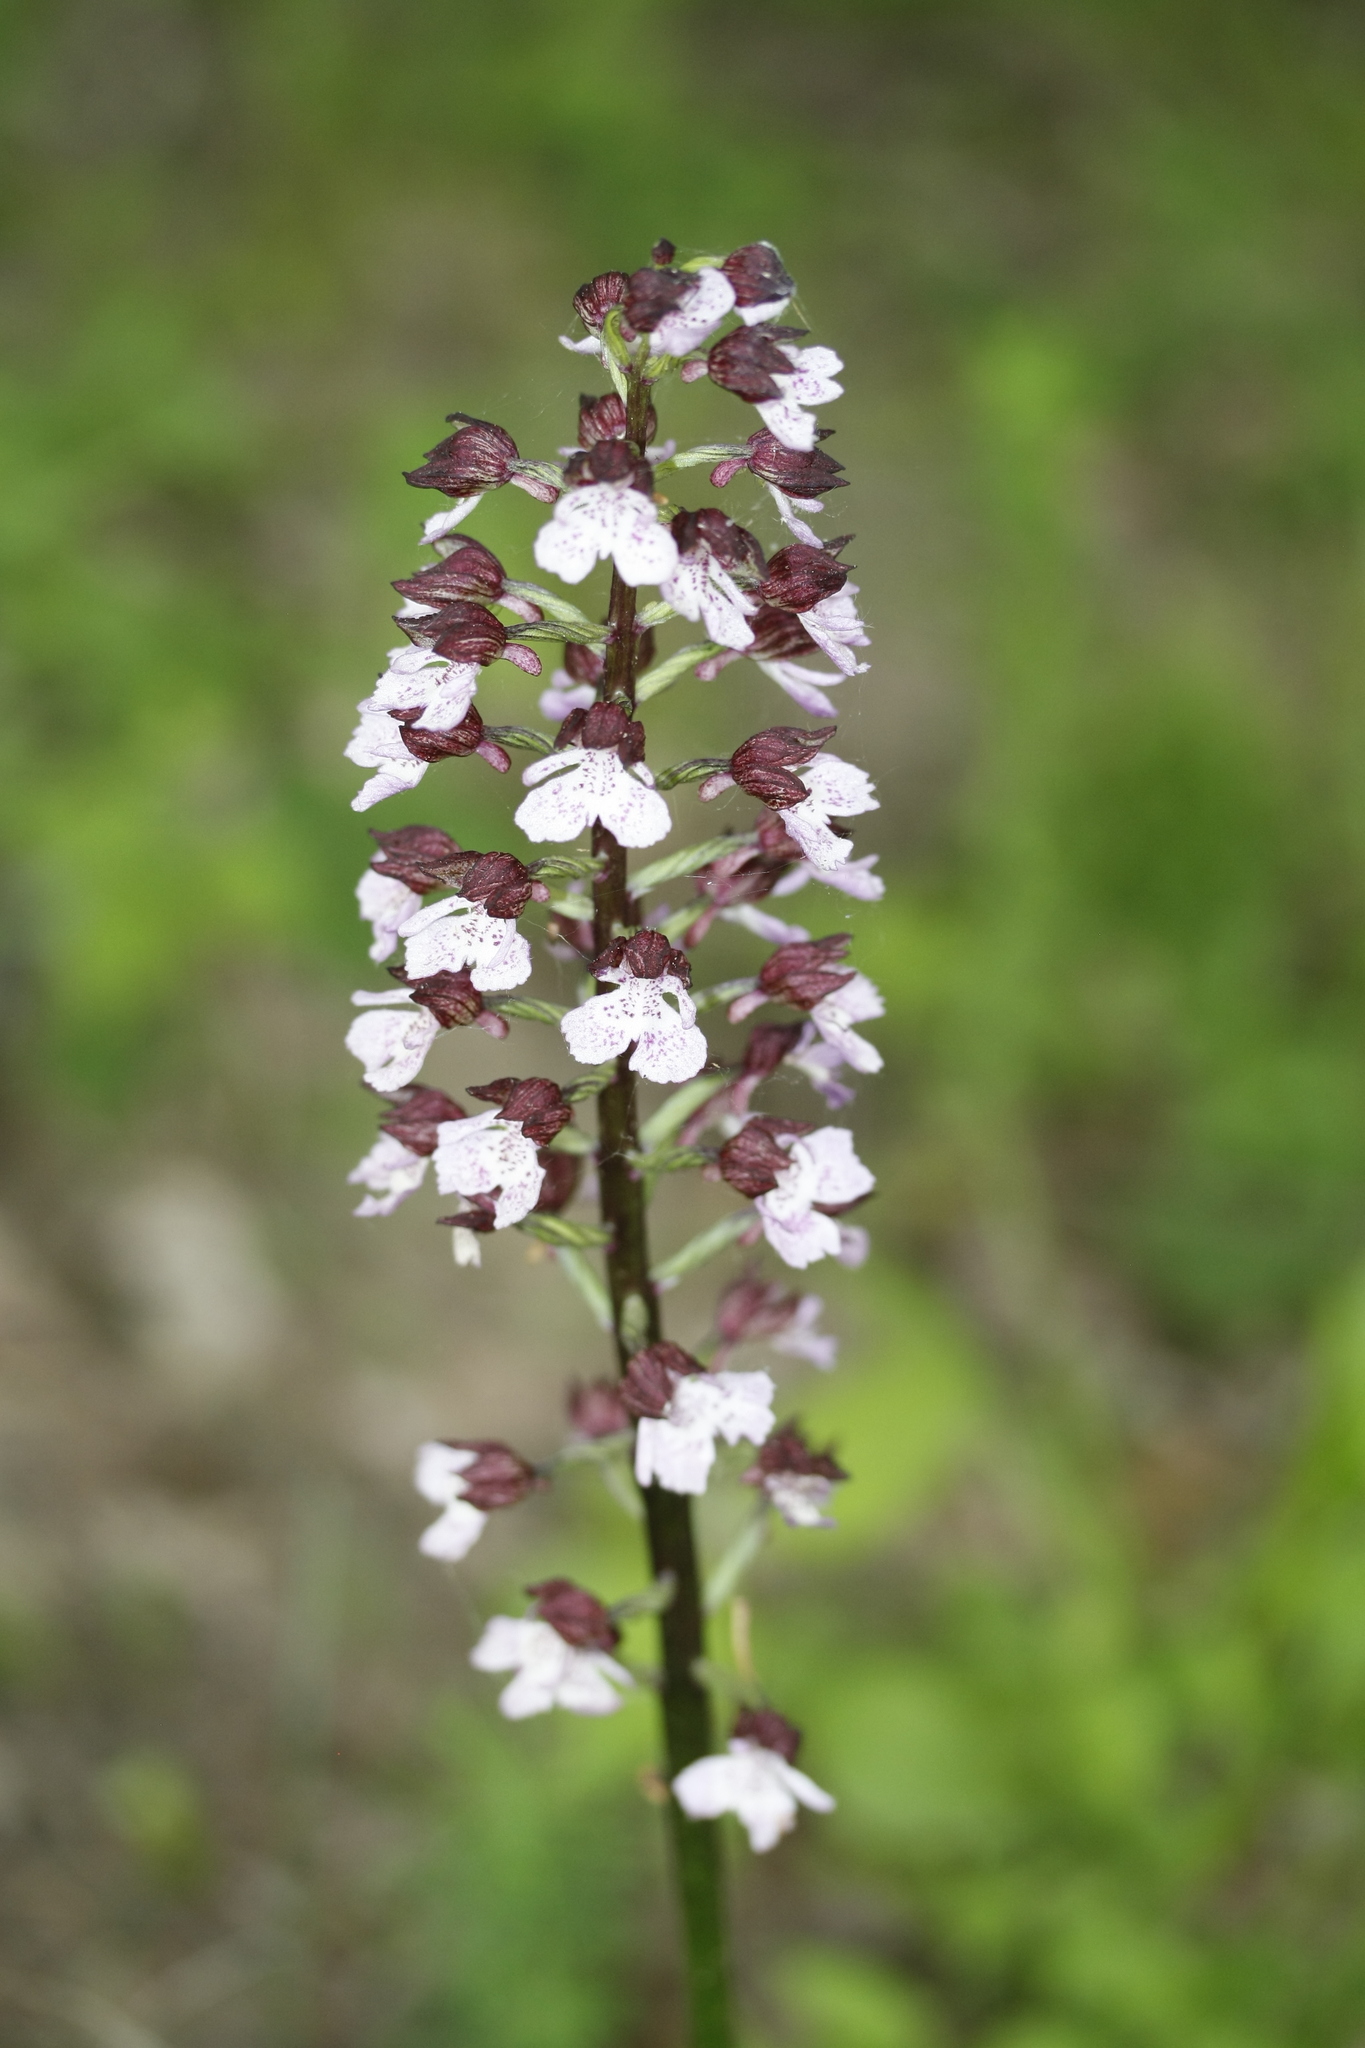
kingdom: Plantae
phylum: Tracheophyta
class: Liliopsida
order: Asparagales
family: Orchidaceae
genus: Orchis
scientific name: Orchis purpurea
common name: Lady orchid
